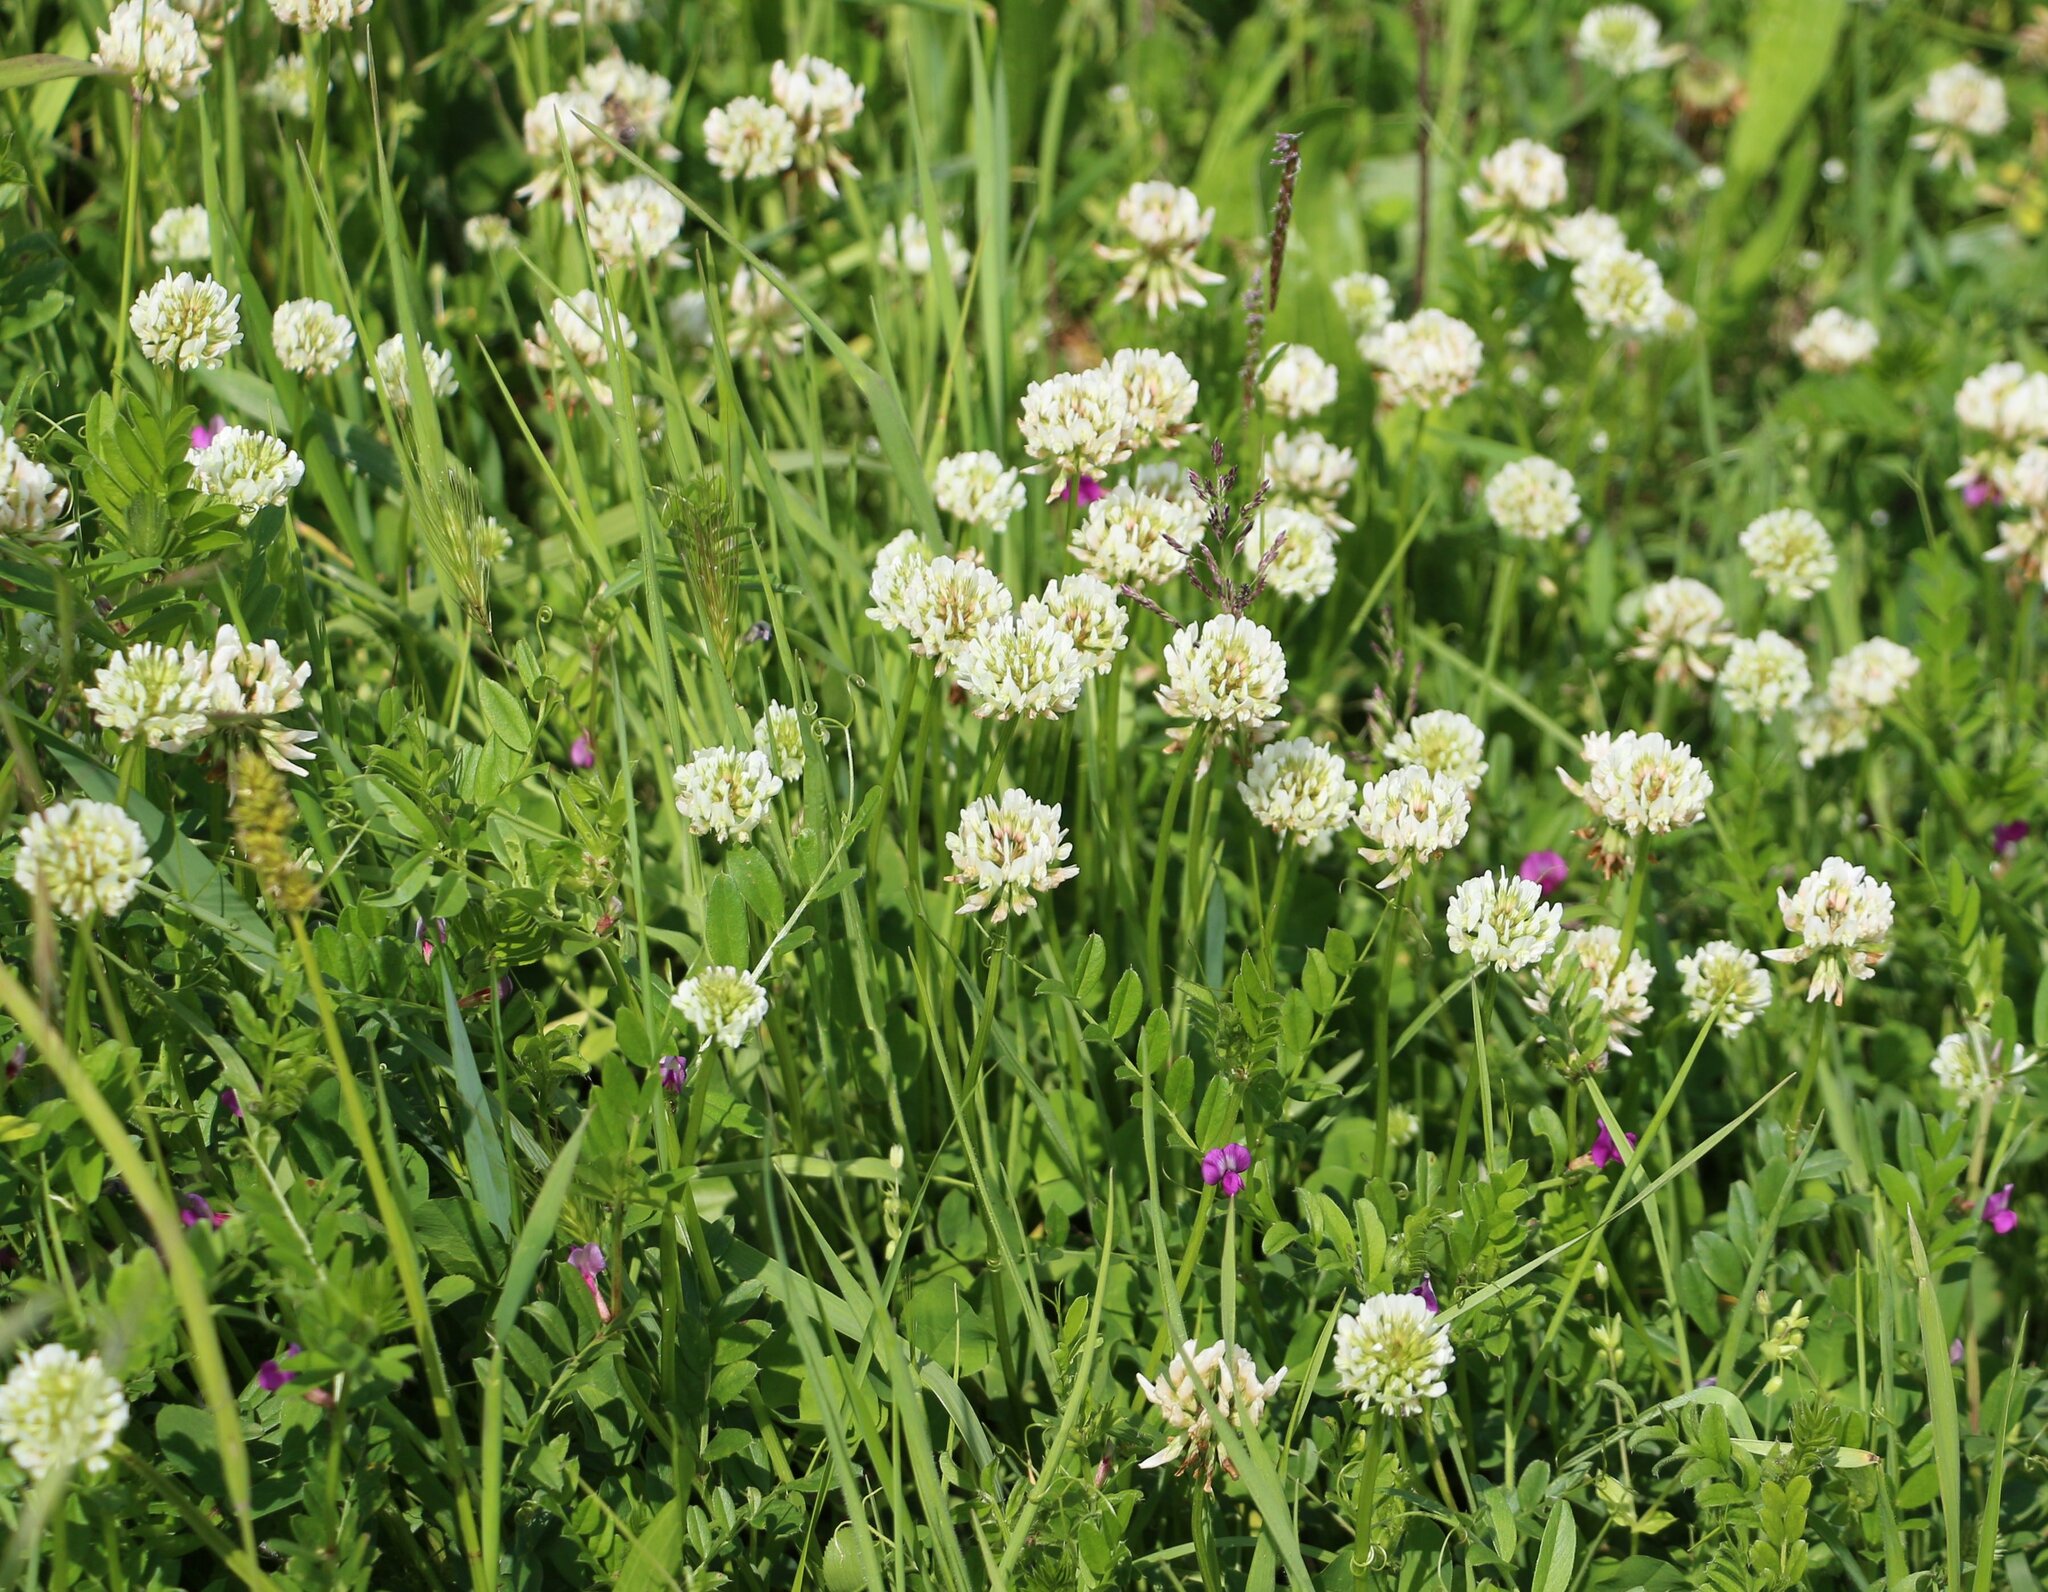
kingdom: Plantae
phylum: Tracheophyta
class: Magnoliopsida
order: Fabales
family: Fabaceae
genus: Trifolium
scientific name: Trifolium repens
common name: White clover
